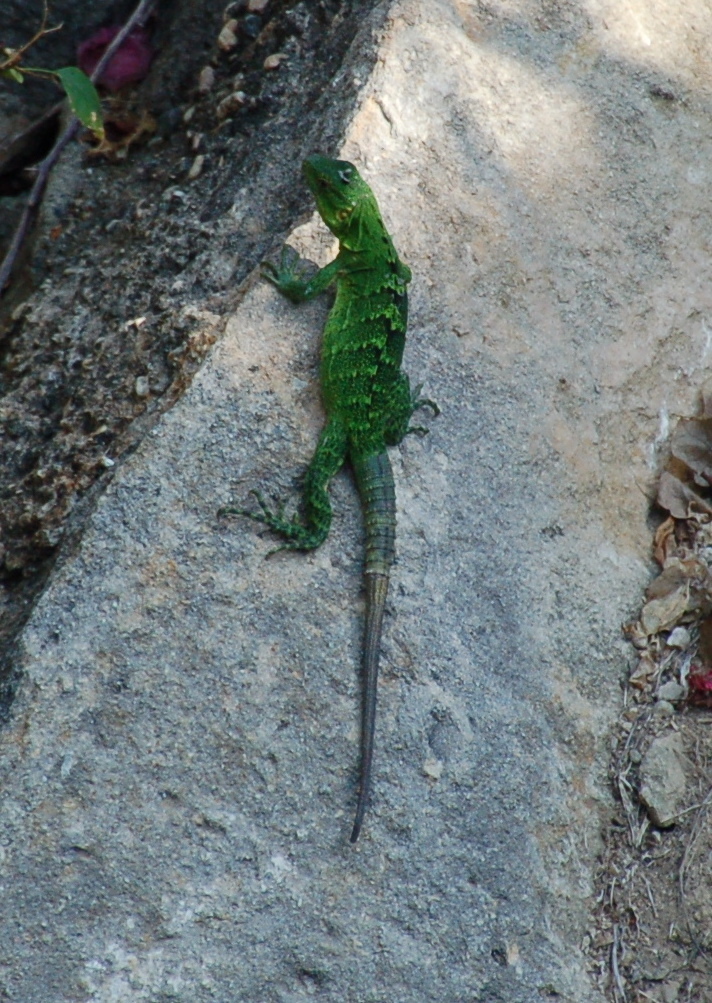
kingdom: Animalia
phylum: Chordata
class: Squamata
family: Iguanidae
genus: Ctenosaura
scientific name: Ctenosaura pectinata
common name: Guerreran spiny-tailed iguana
